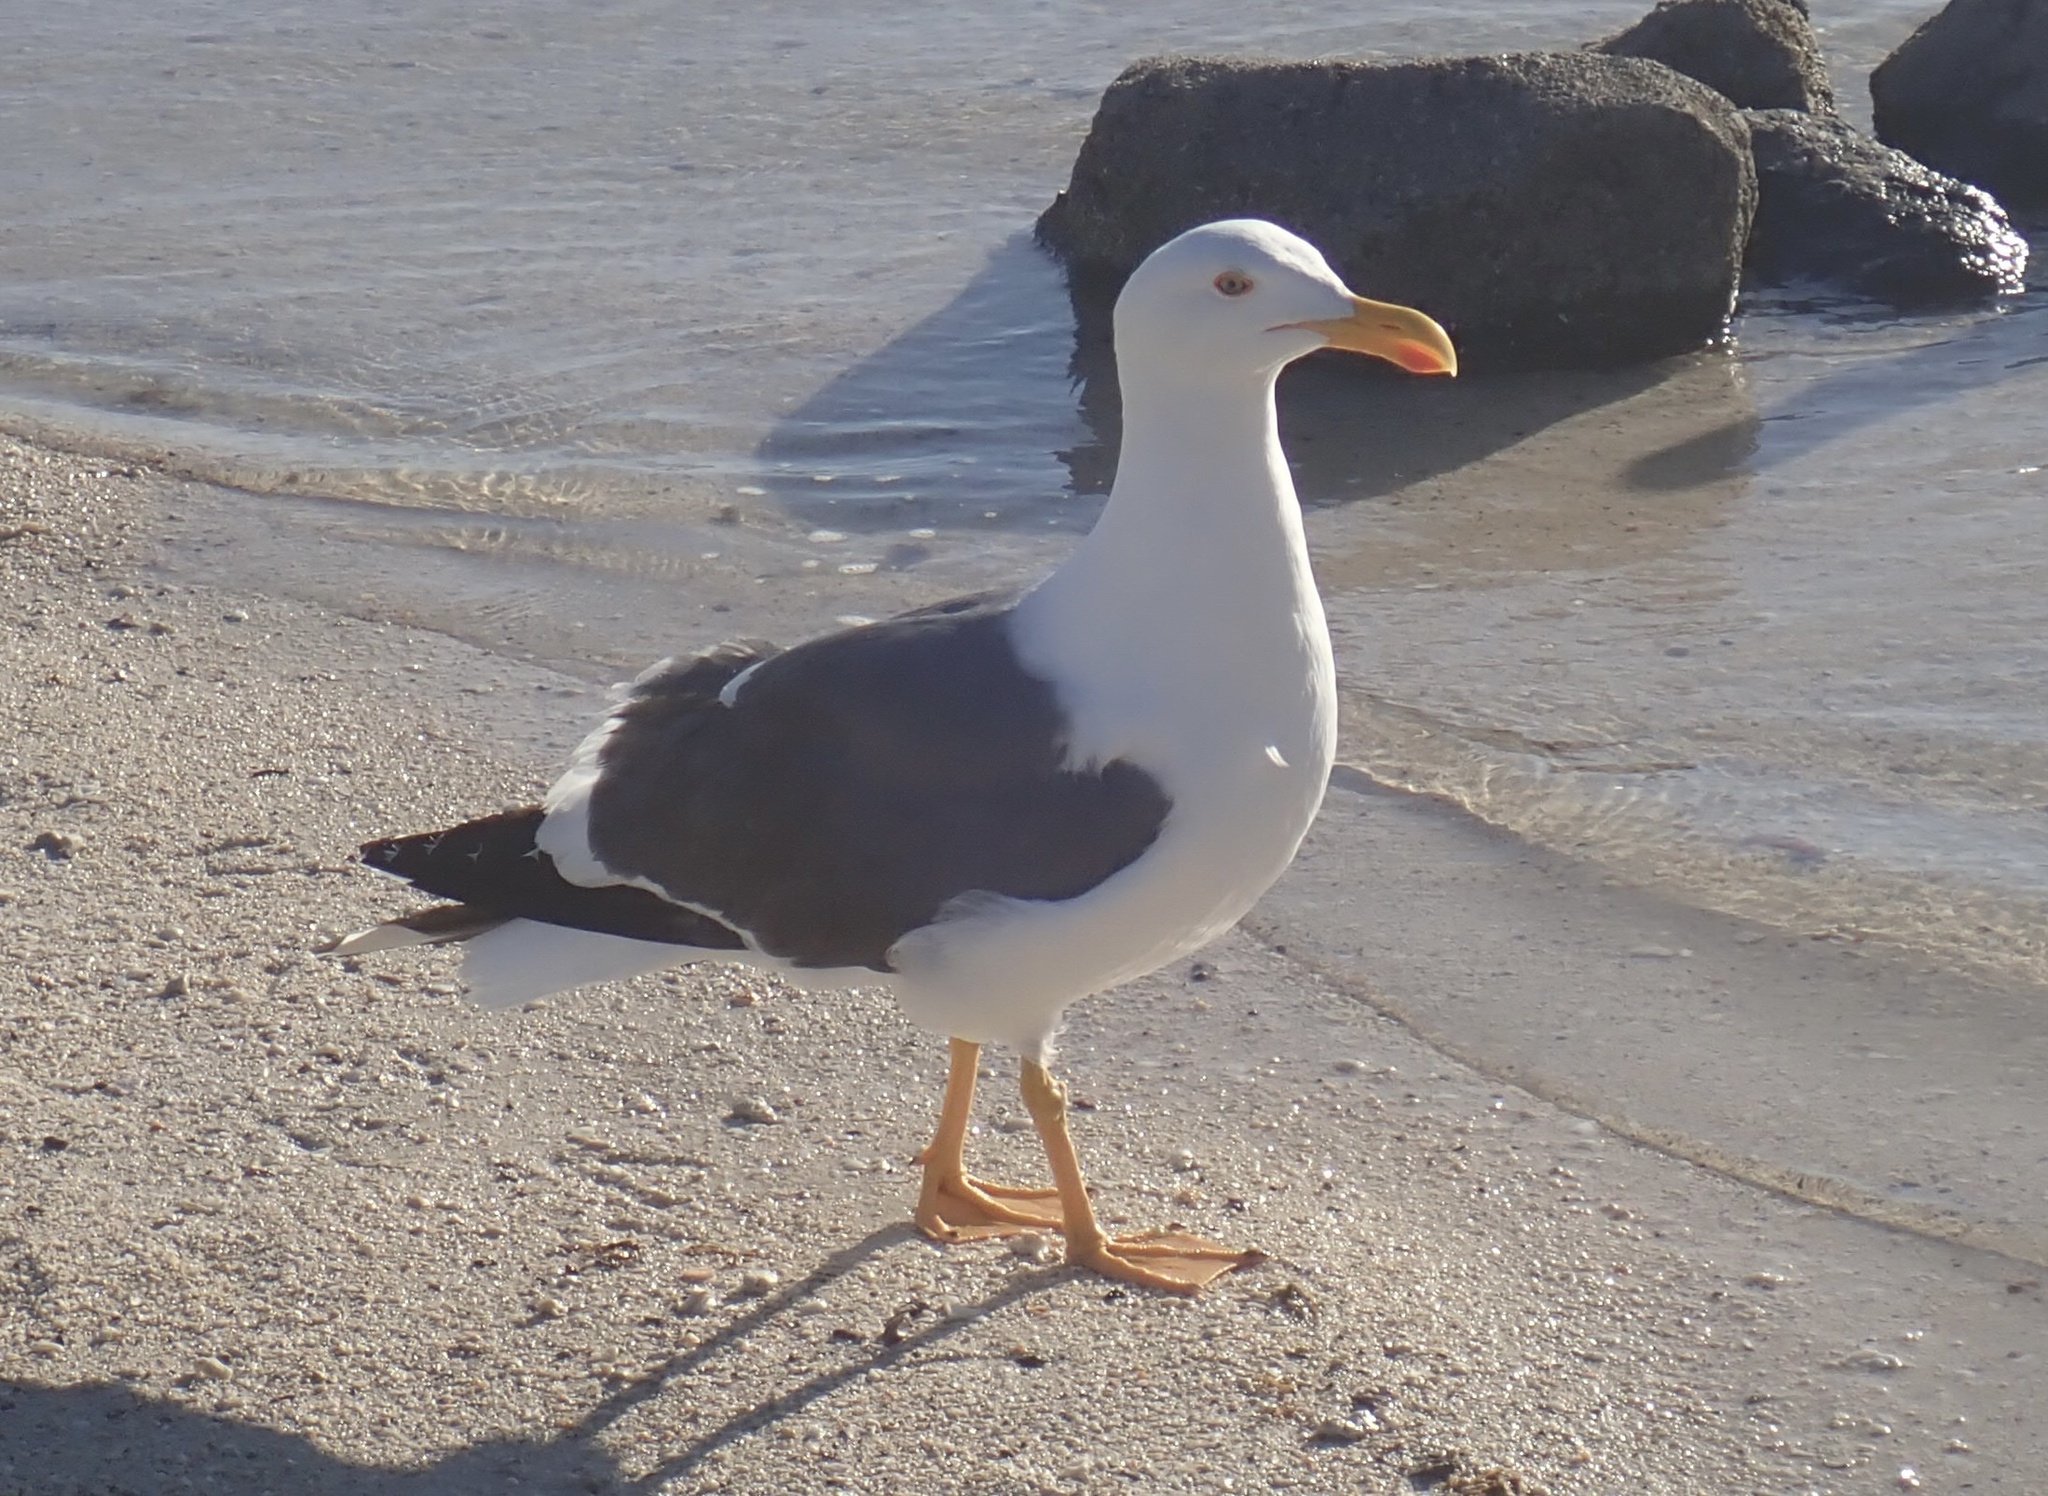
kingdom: Animalia
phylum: Chordata
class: Aves
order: Charadriiformes
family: Laridae
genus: Larus
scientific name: Larus livens
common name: Yellow-footed gull
